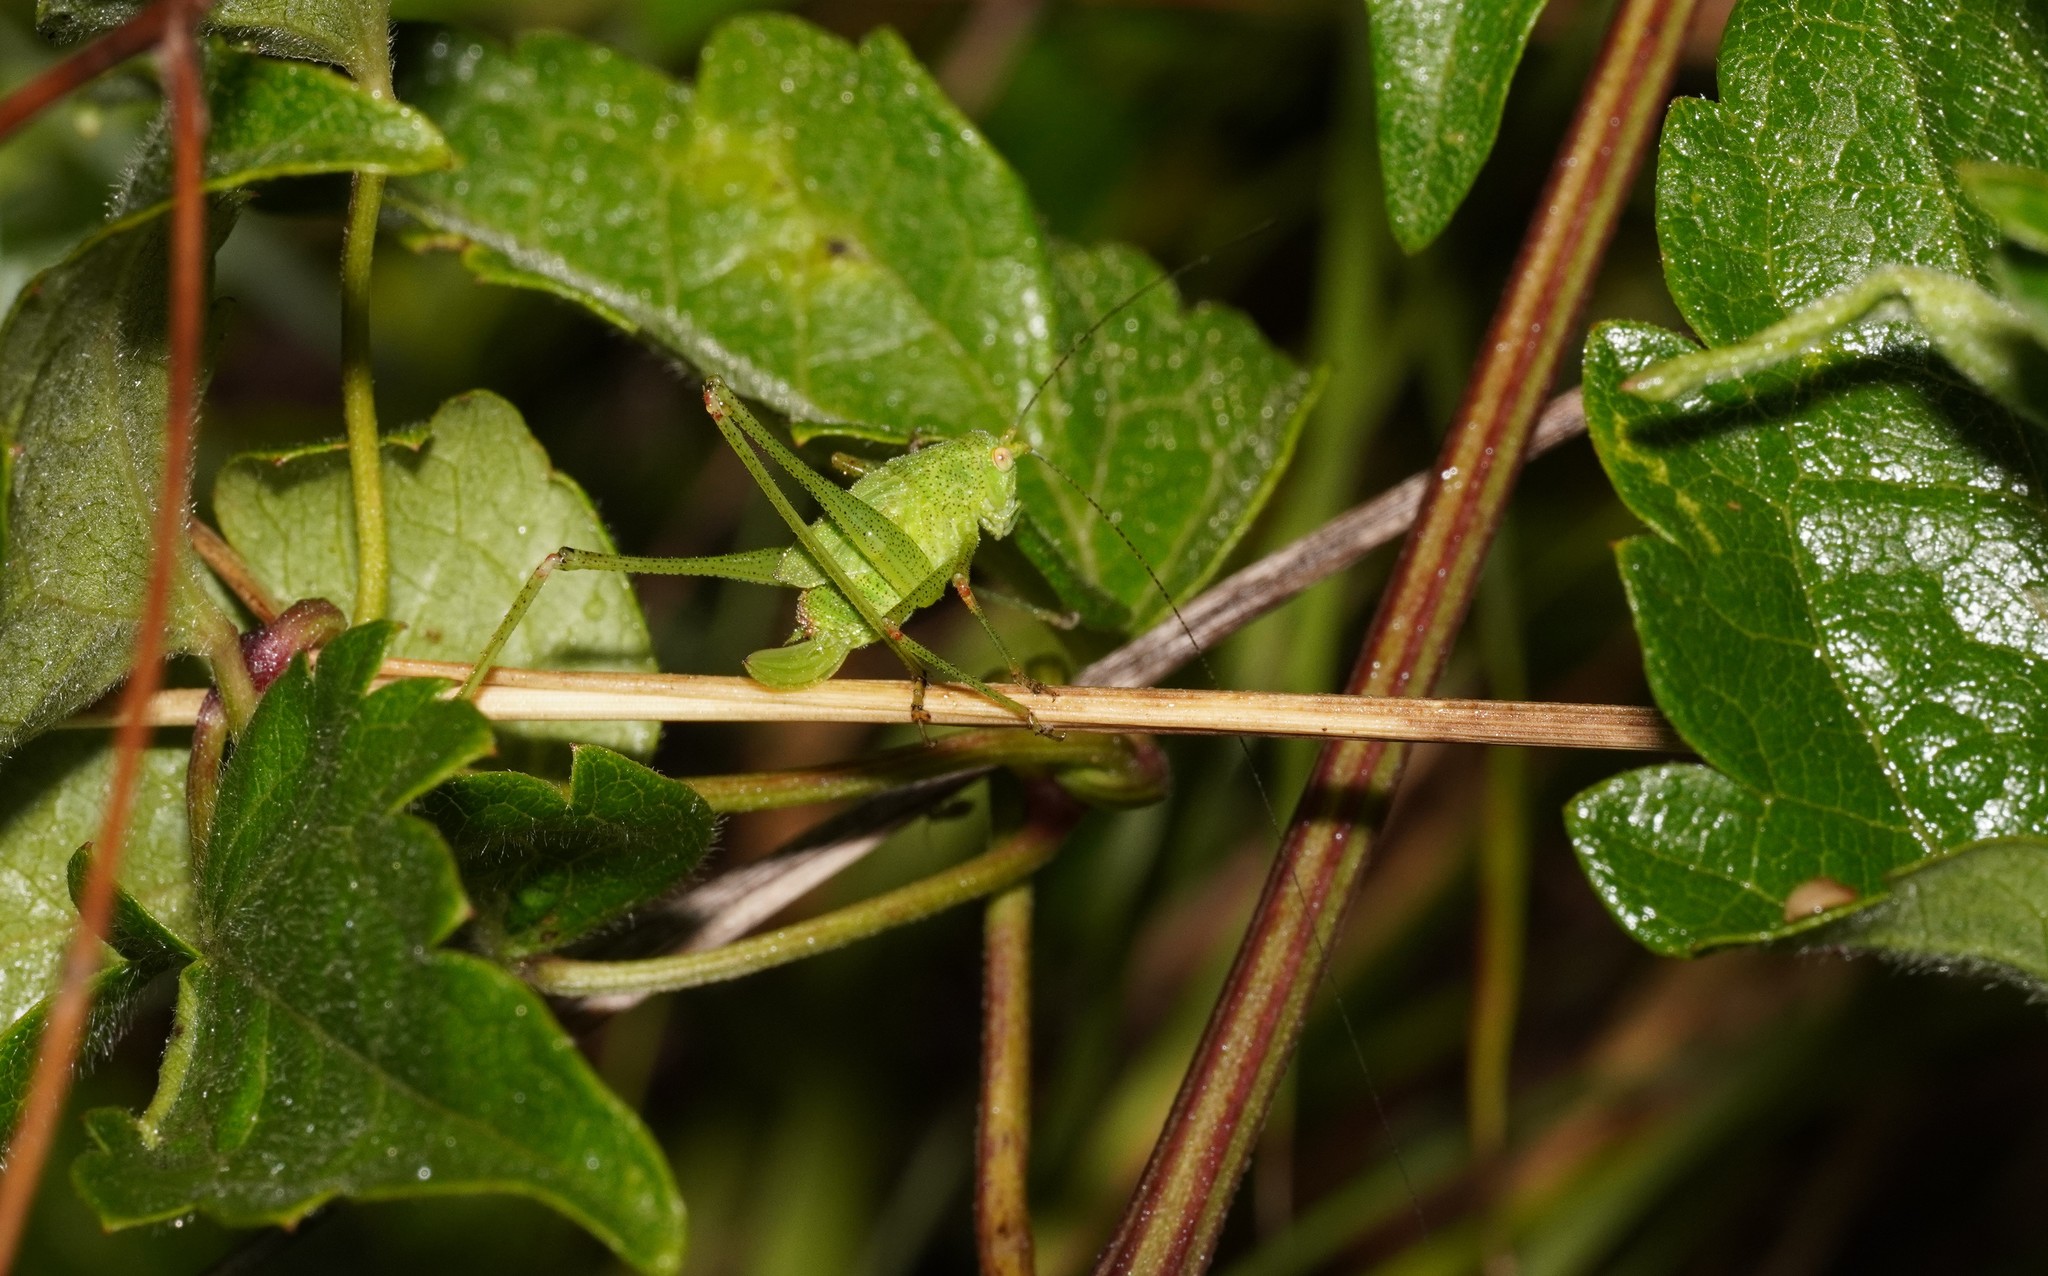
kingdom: Animalia
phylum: Arthropoda
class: Insecta
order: Orthoptera
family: Tettigoniidae
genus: Phaneroptera
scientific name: Phaneroptera nana
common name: Southern sickle bush-cricket
